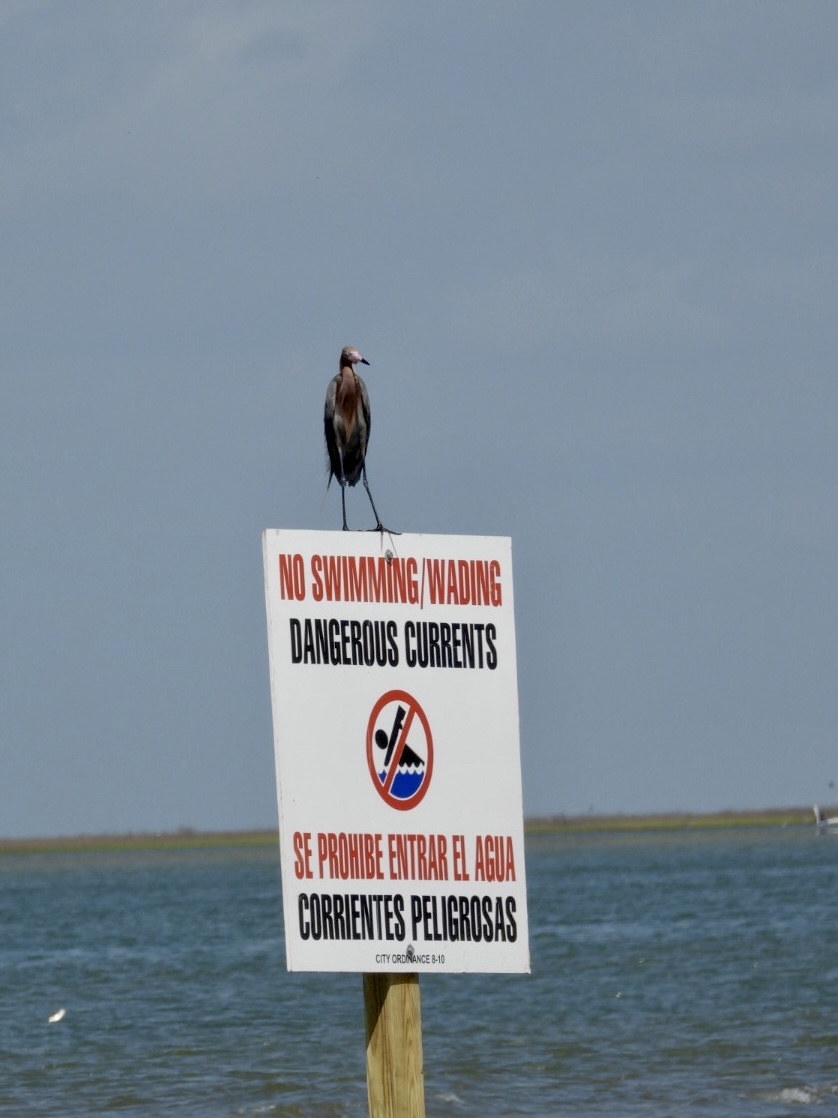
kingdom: Animalia
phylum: Chordata
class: Aves
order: Pelecaniformes
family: Ardeidae
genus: Egretta
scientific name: Egretta rufescens
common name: Reddish egret
